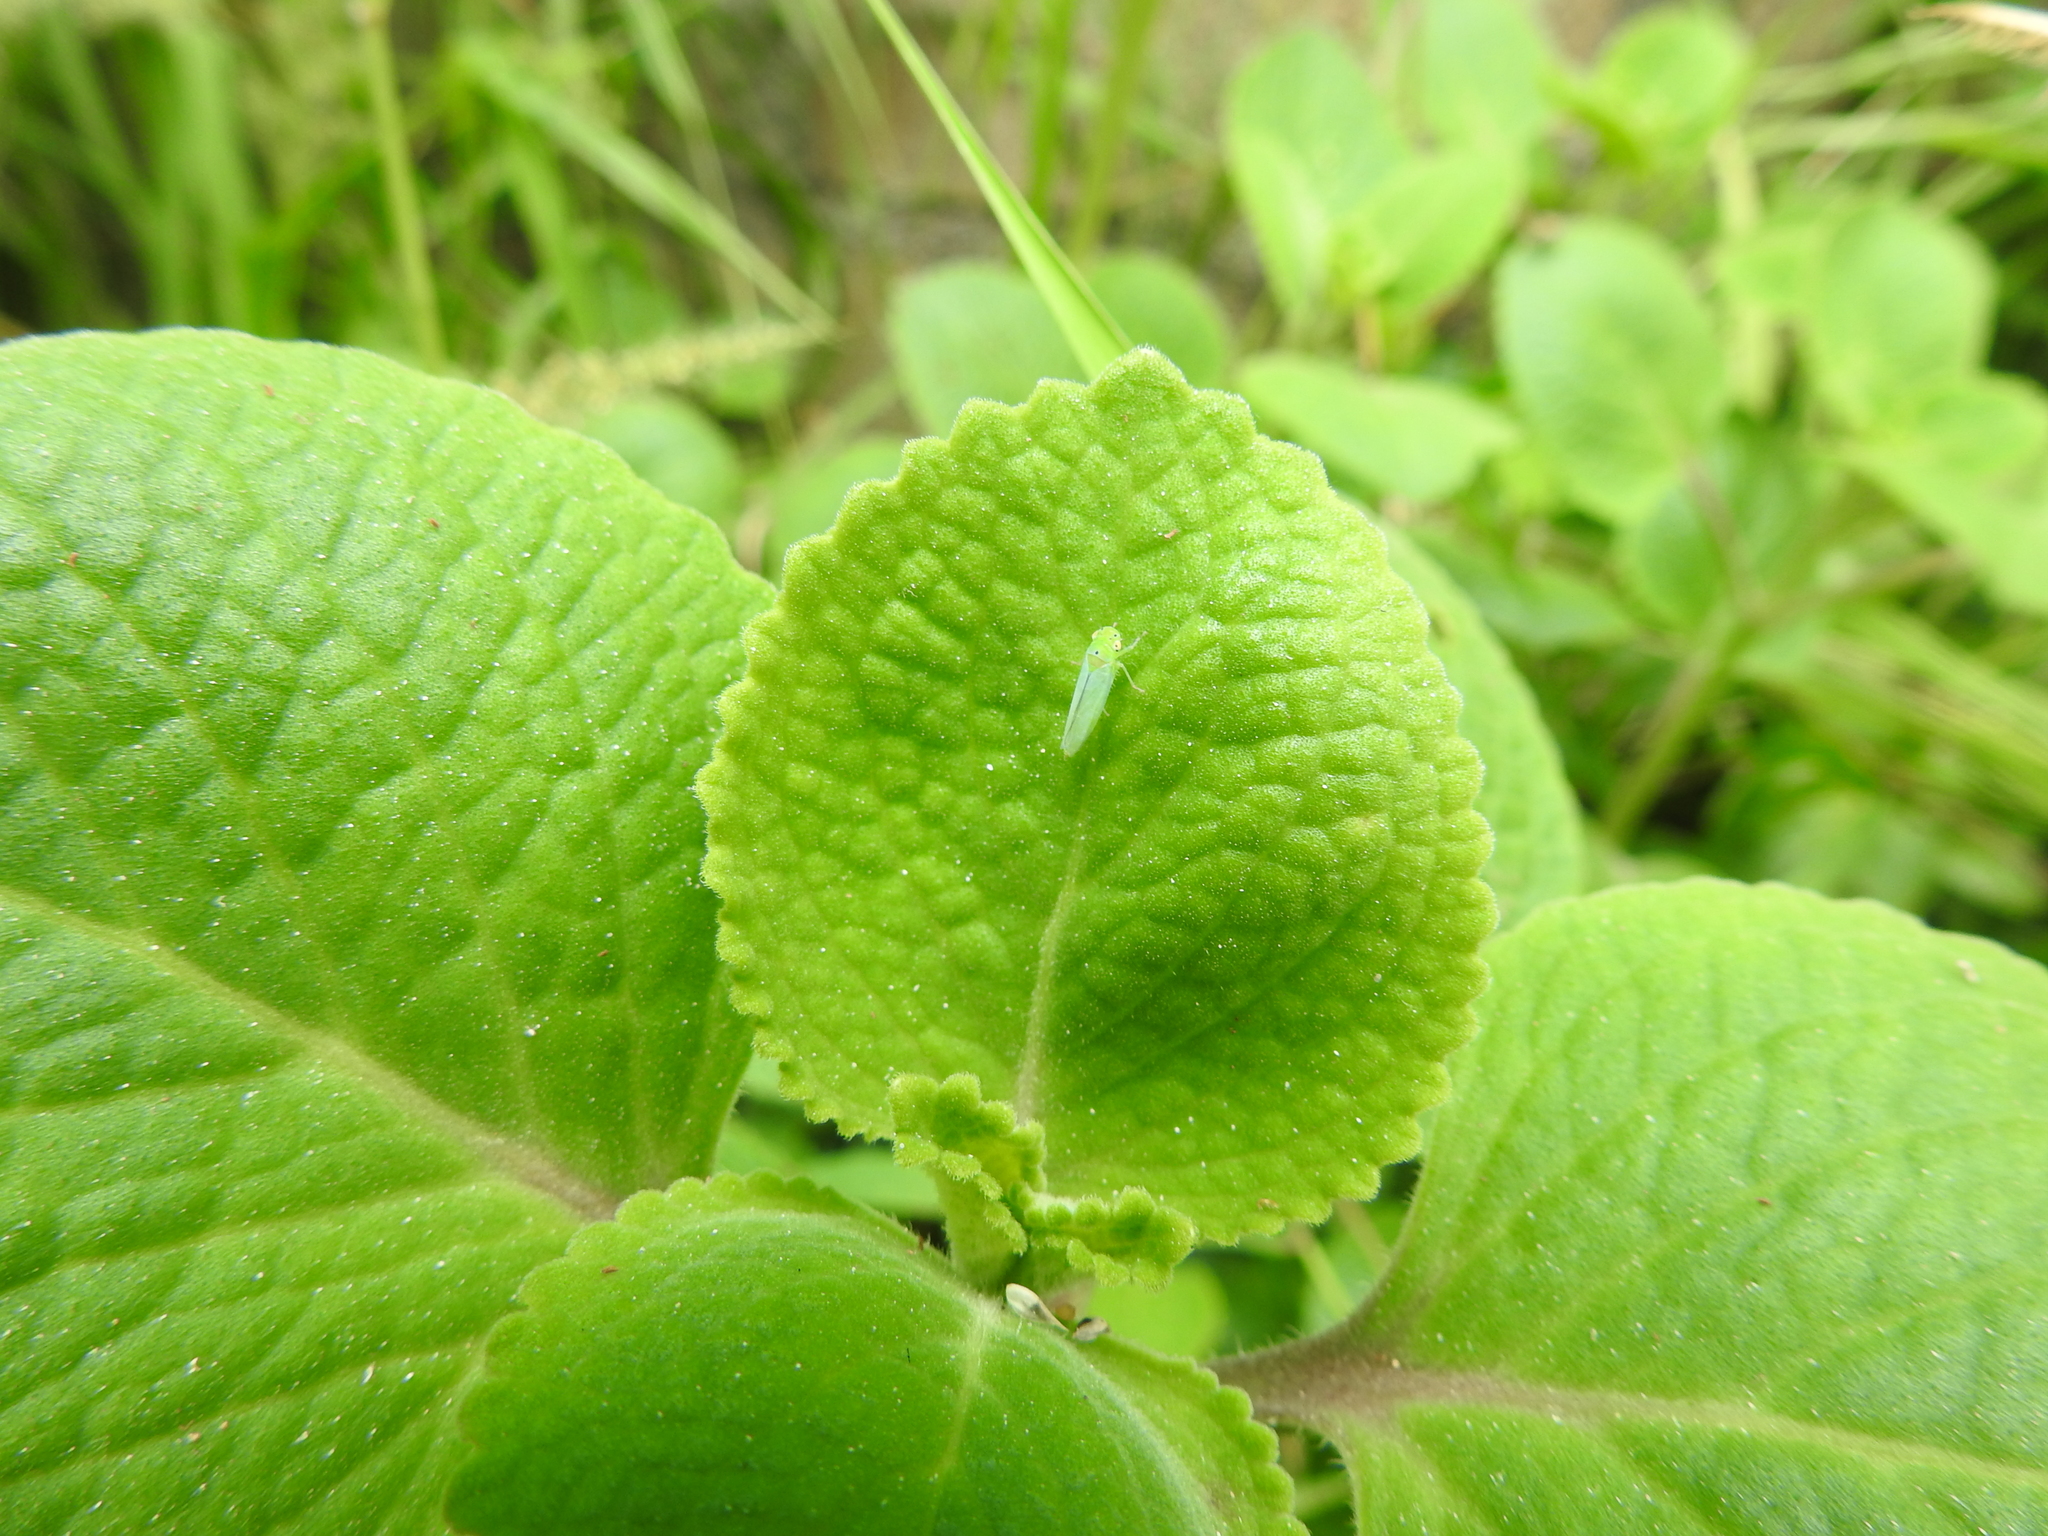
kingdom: Animalia
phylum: Arthropoda
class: Insecta
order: Hemiptera
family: Cicadellidae
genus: Kolla
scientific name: Kolla ceylonica
